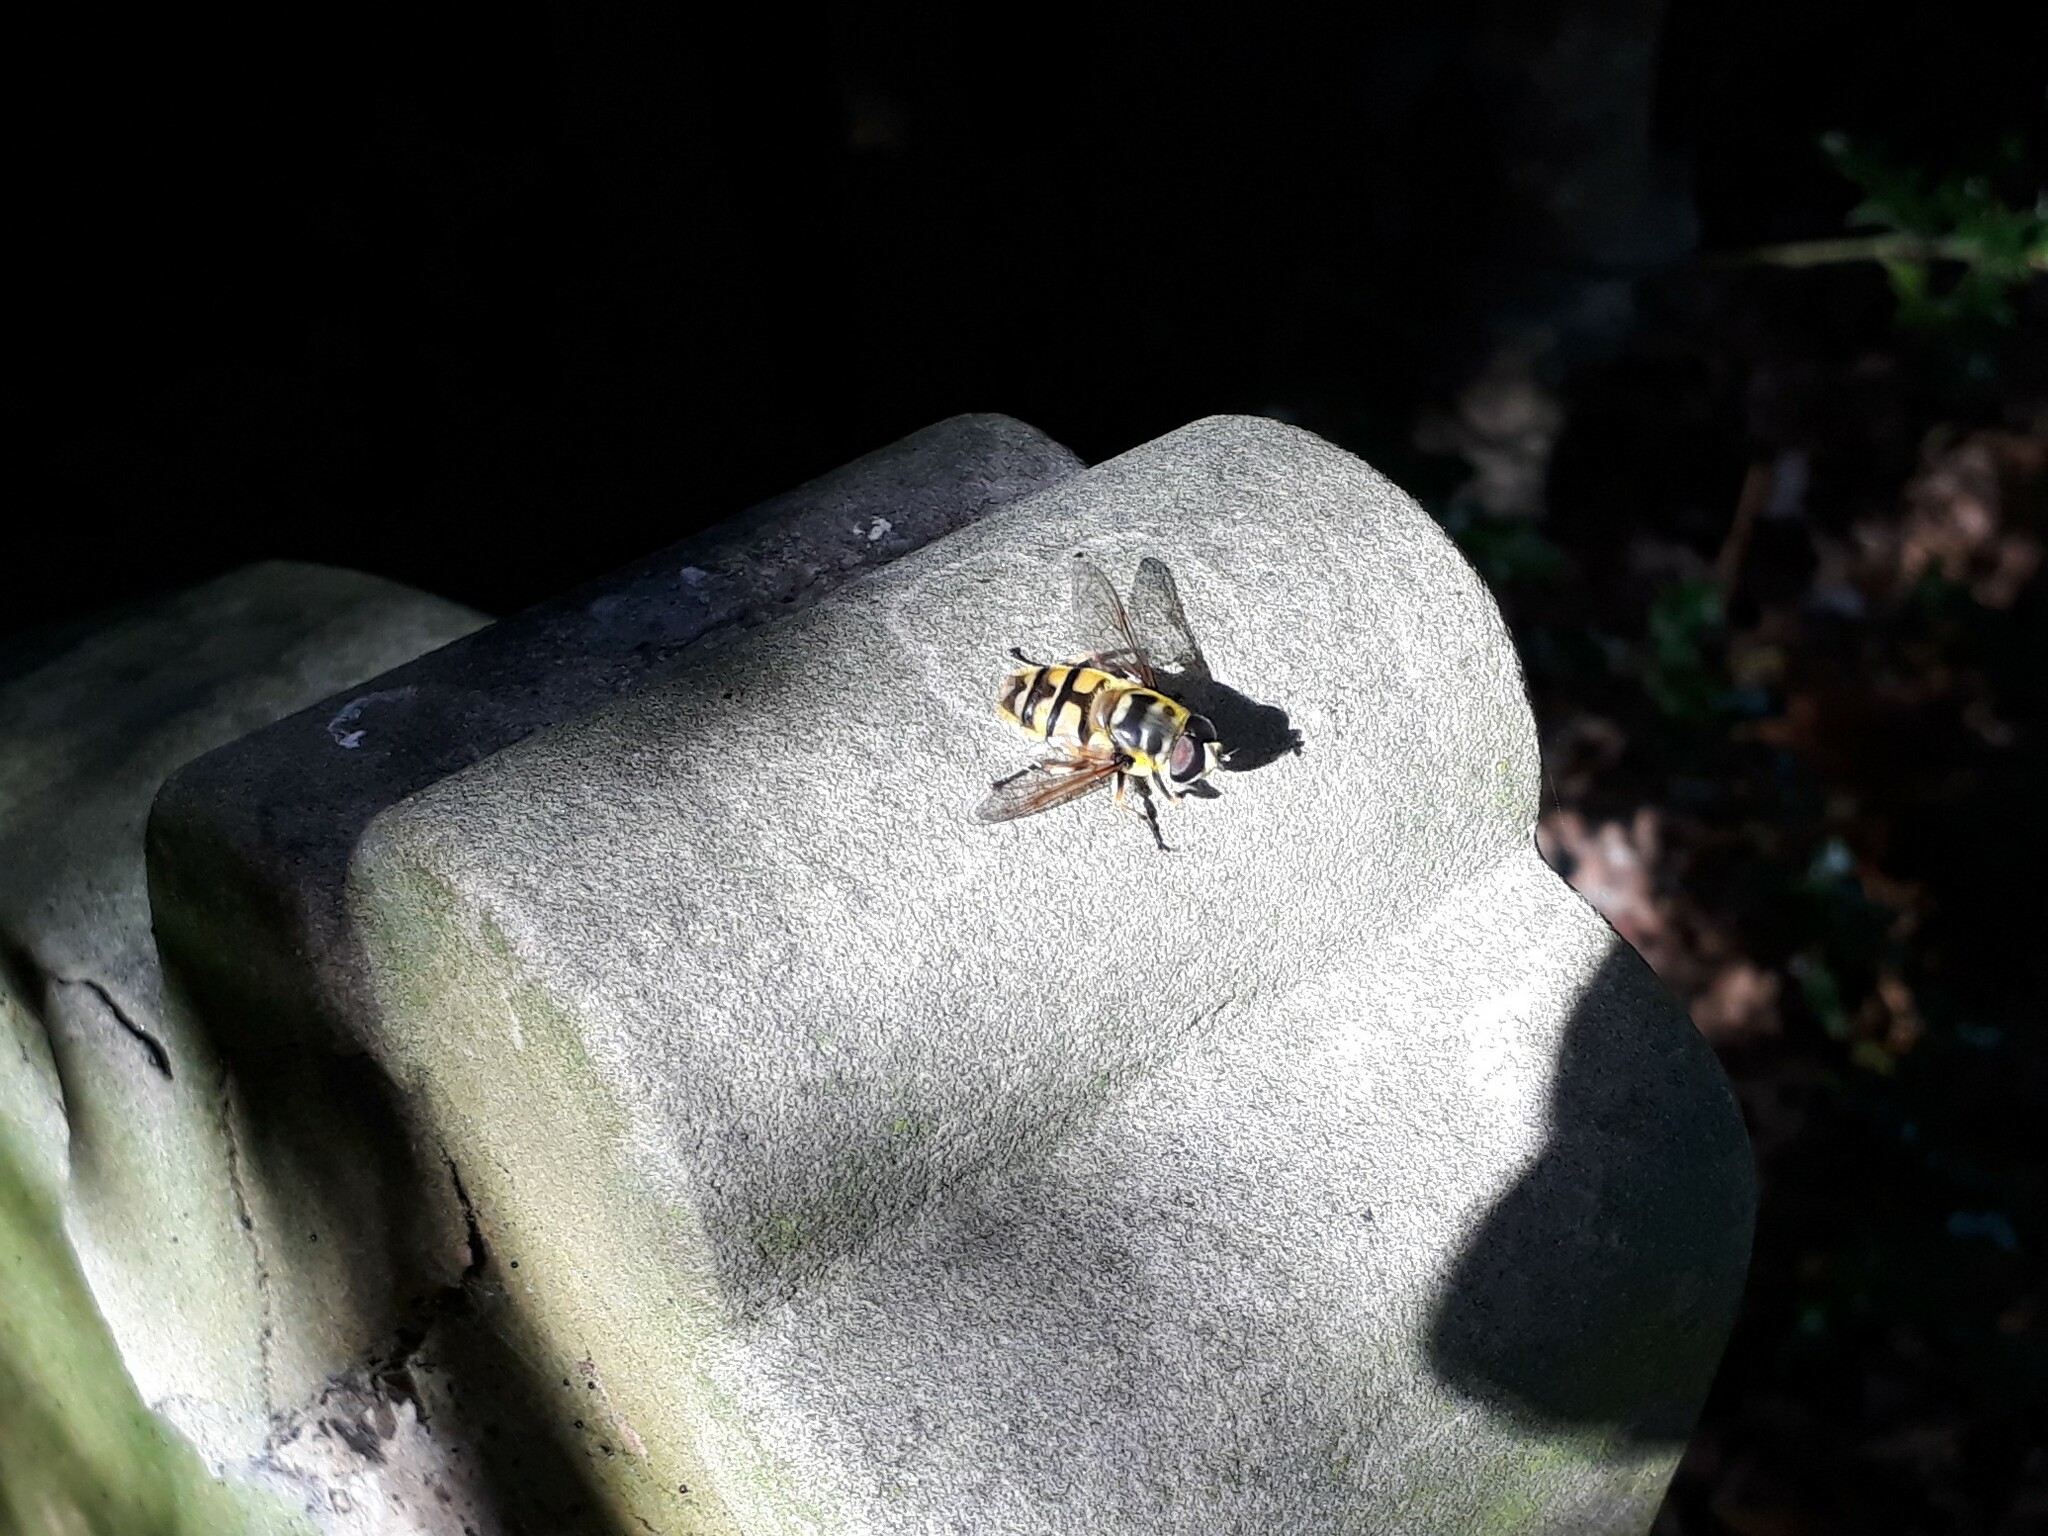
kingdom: Animalia
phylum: Arthropoda
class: Insecta
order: Diptera
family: Syrphidae
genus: Myathropa
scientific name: Myathropa florea
